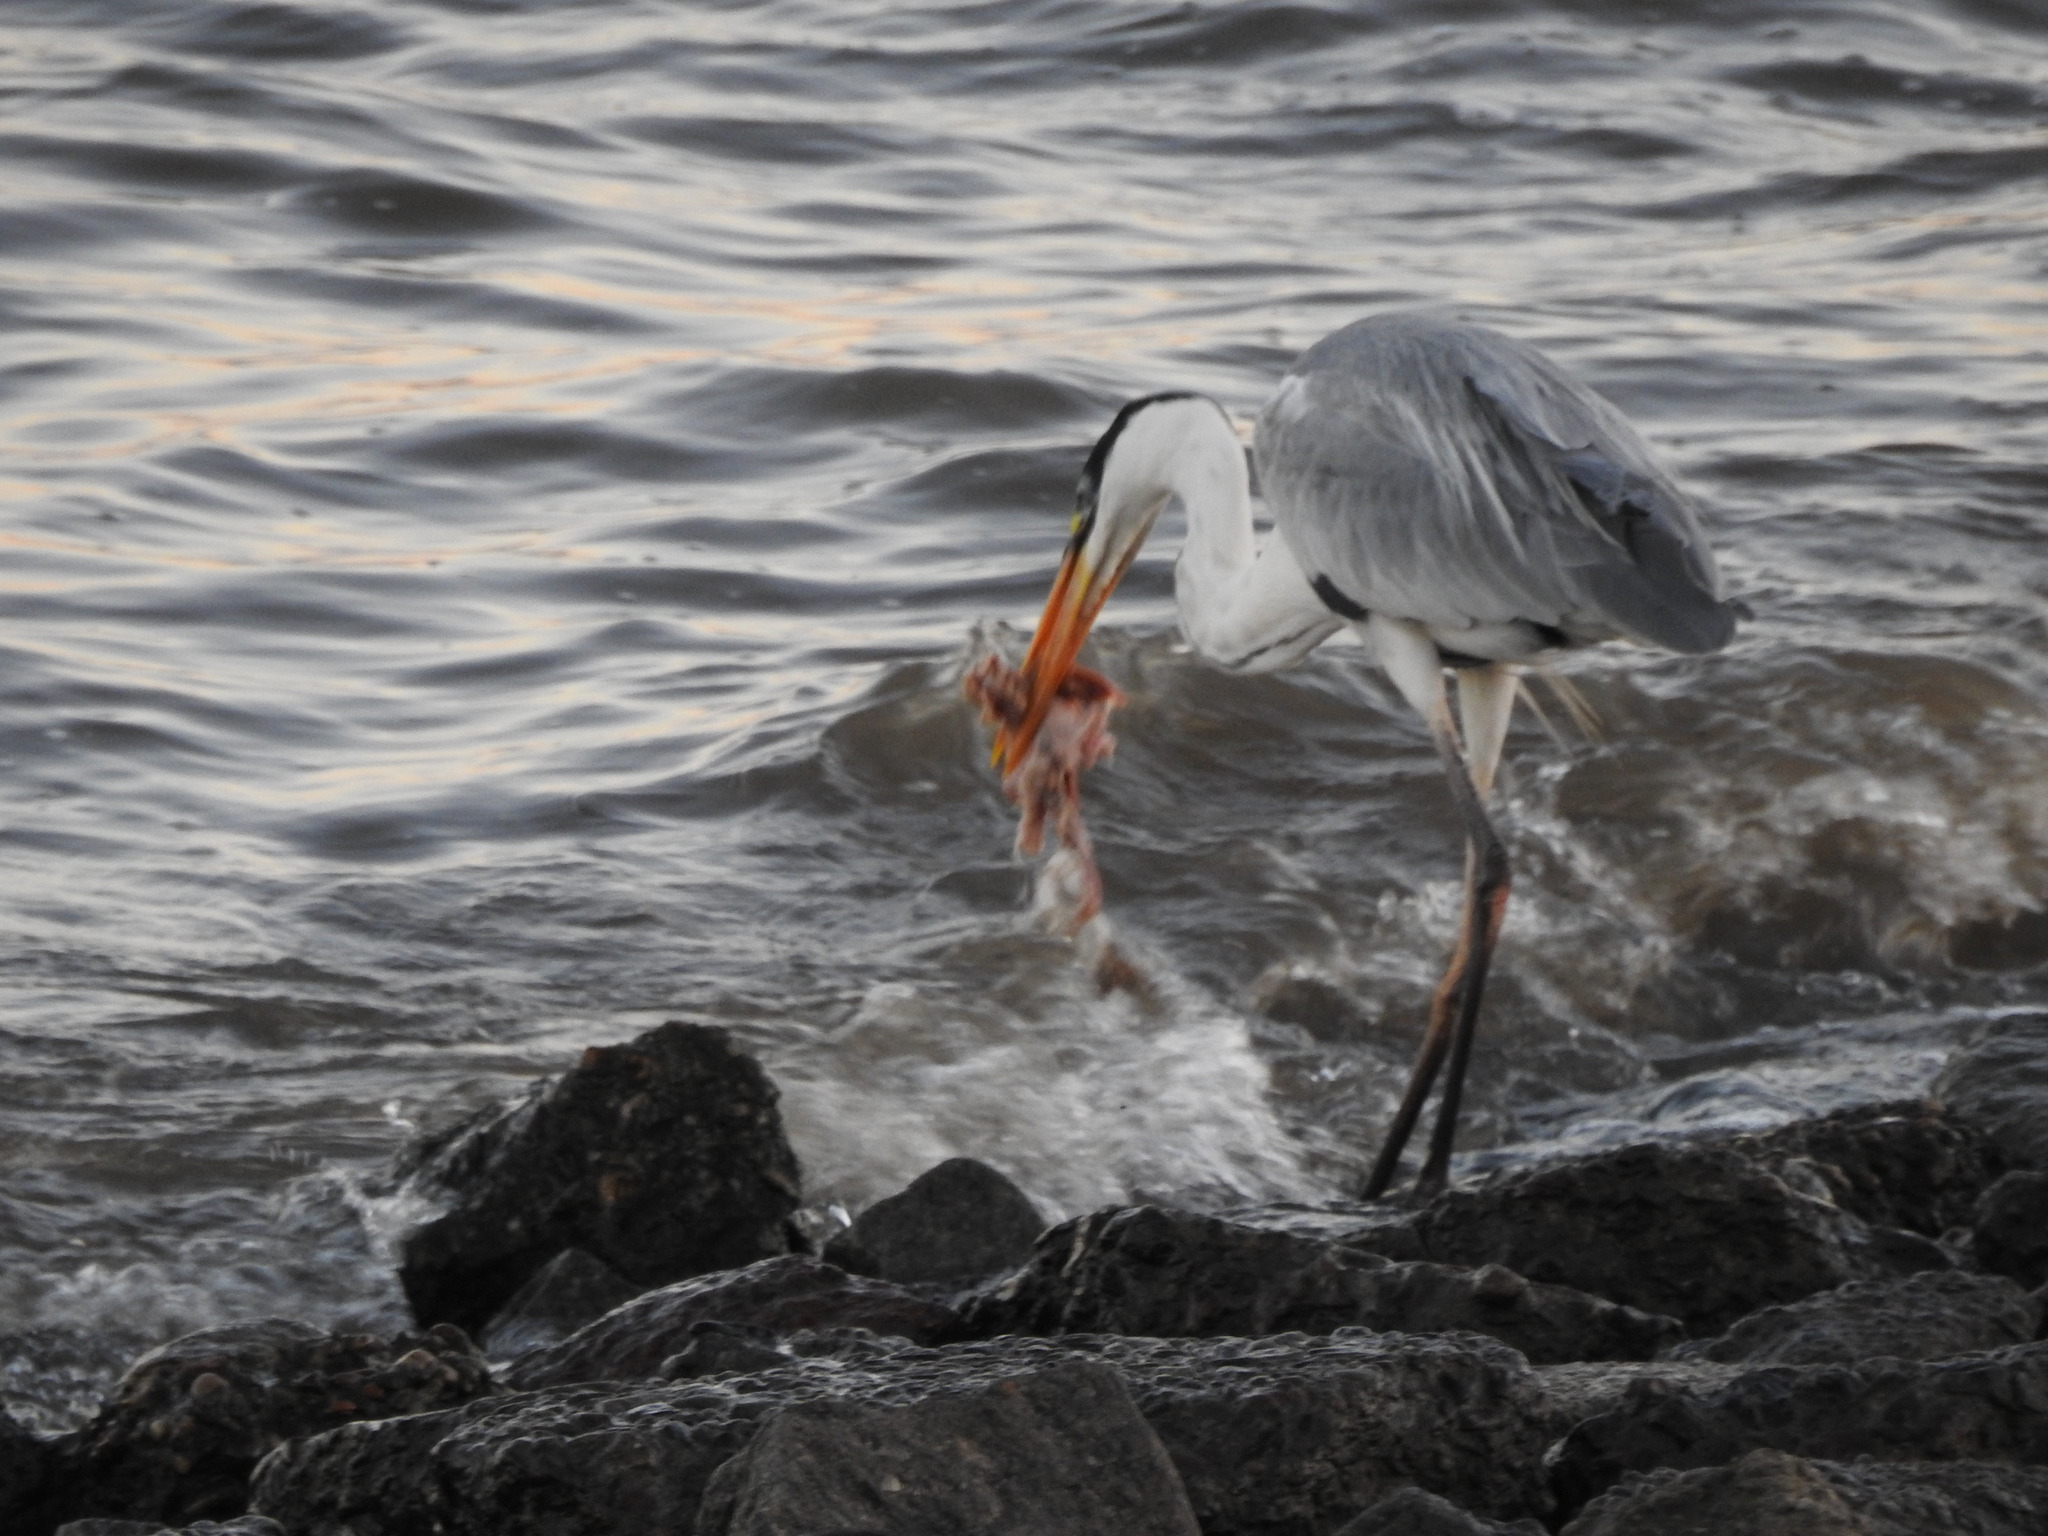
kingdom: Animalia
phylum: Chordata
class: Aves
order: Pelecaniformes
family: Ardeidae
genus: Ardea
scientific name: Ardea cocoi
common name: Cocoi heron
